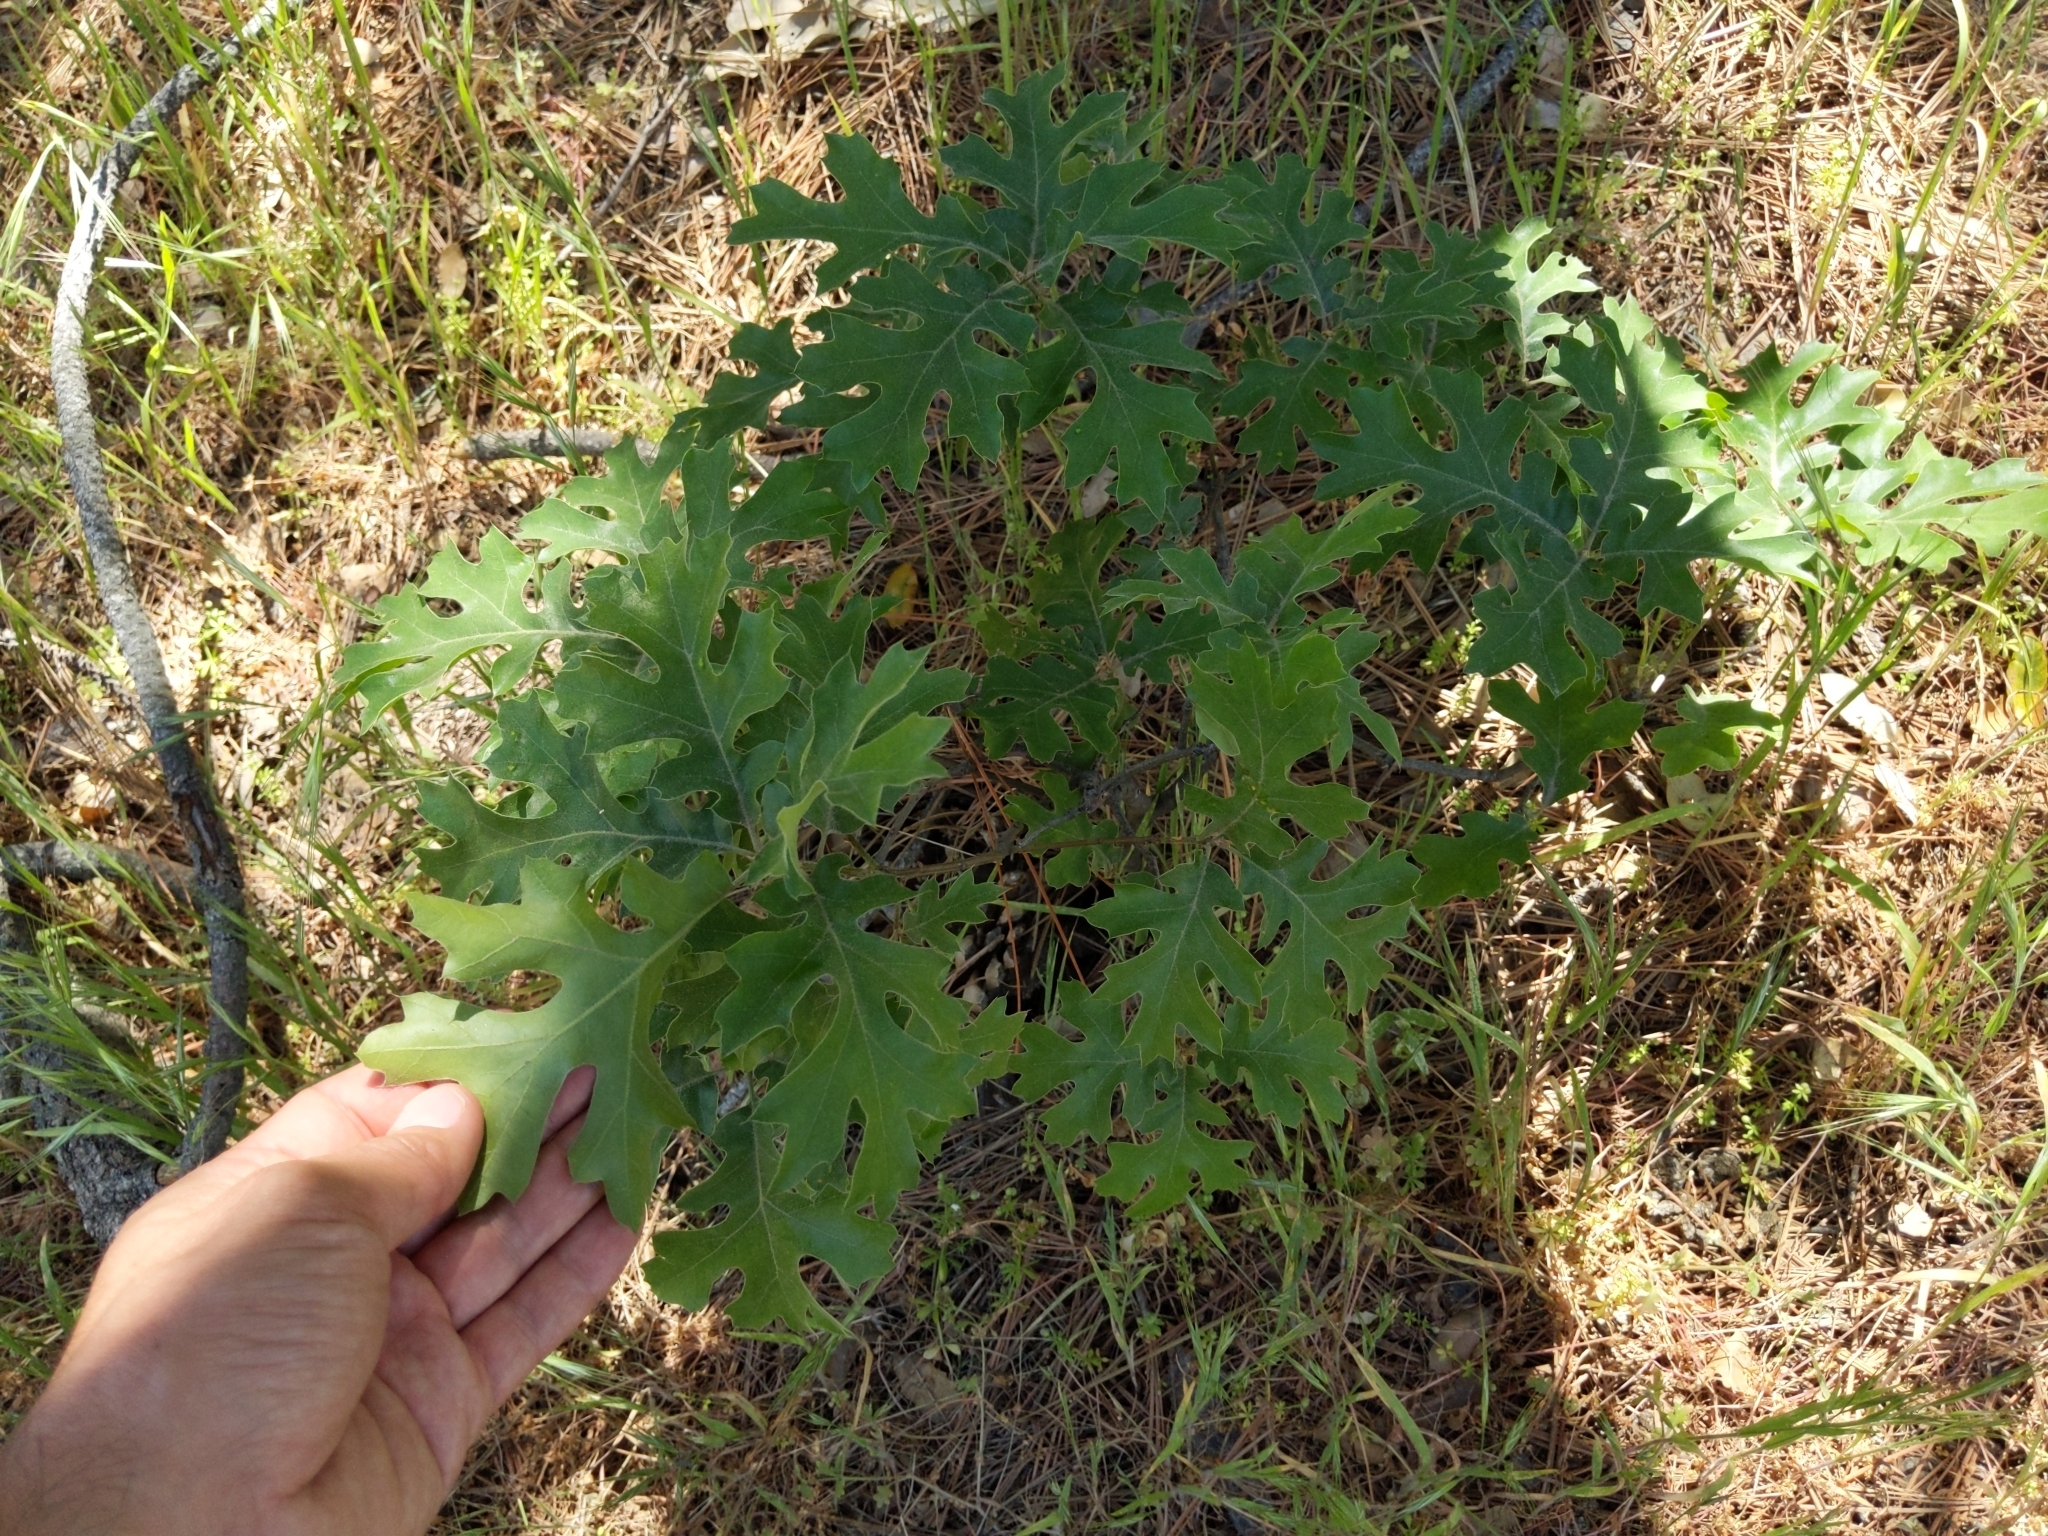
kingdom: Plantae
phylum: Tracheophyta
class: Magnoliopsida
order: Fagales
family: Fagaceae
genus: Quercus
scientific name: Quercus kelloggii
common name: California black oak
